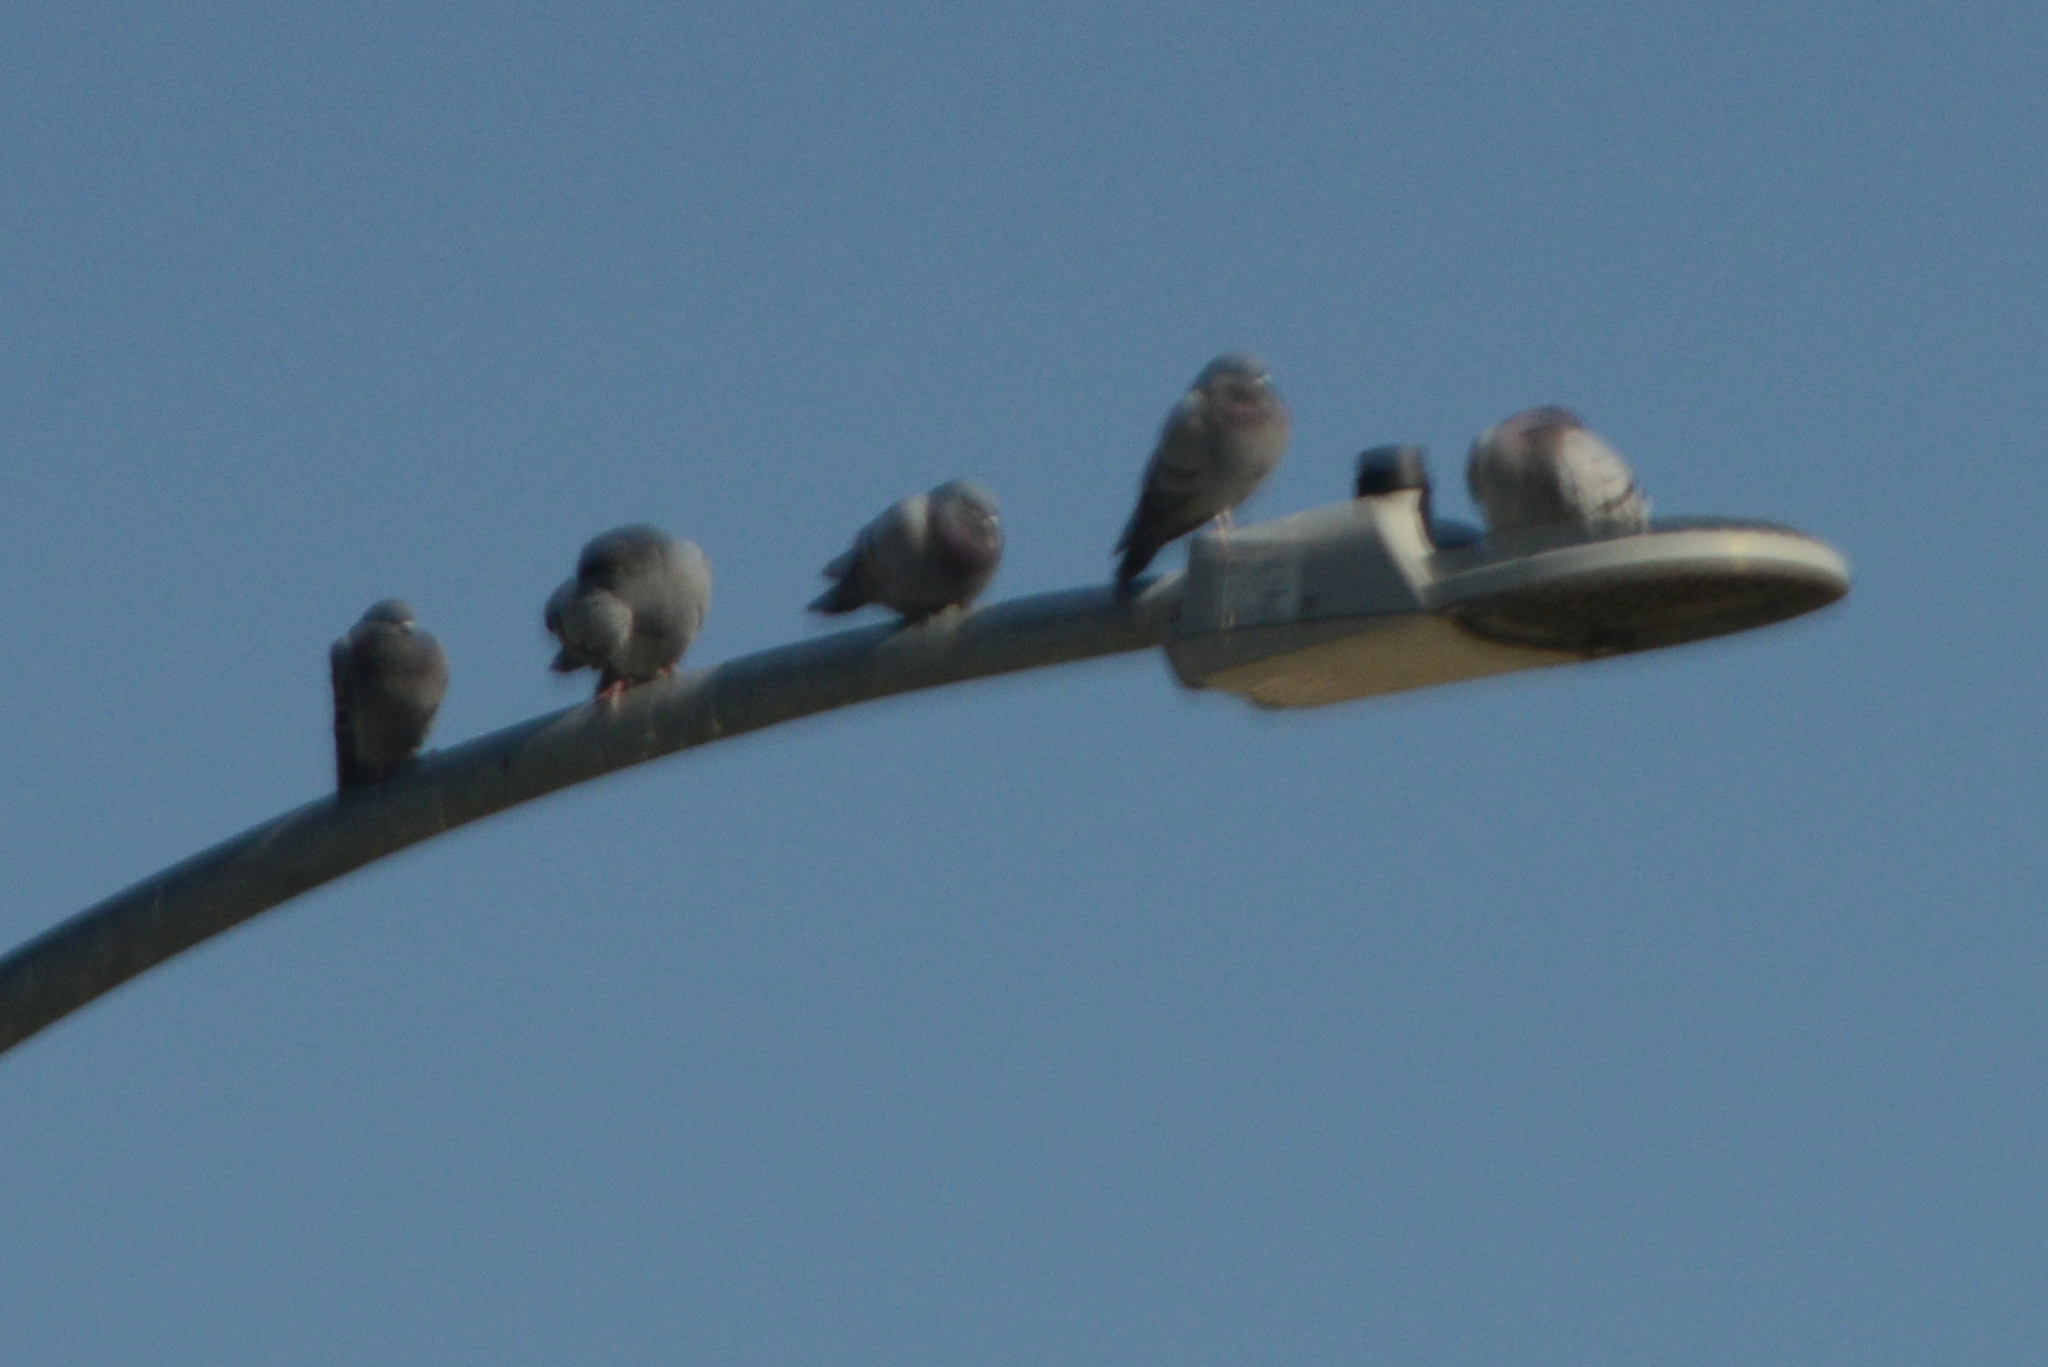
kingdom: Animalia
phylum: Chordata
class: Aves
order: Columbiformes
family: Columbidae
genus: Columba
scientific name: Columba livia
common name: Rock pigeon
